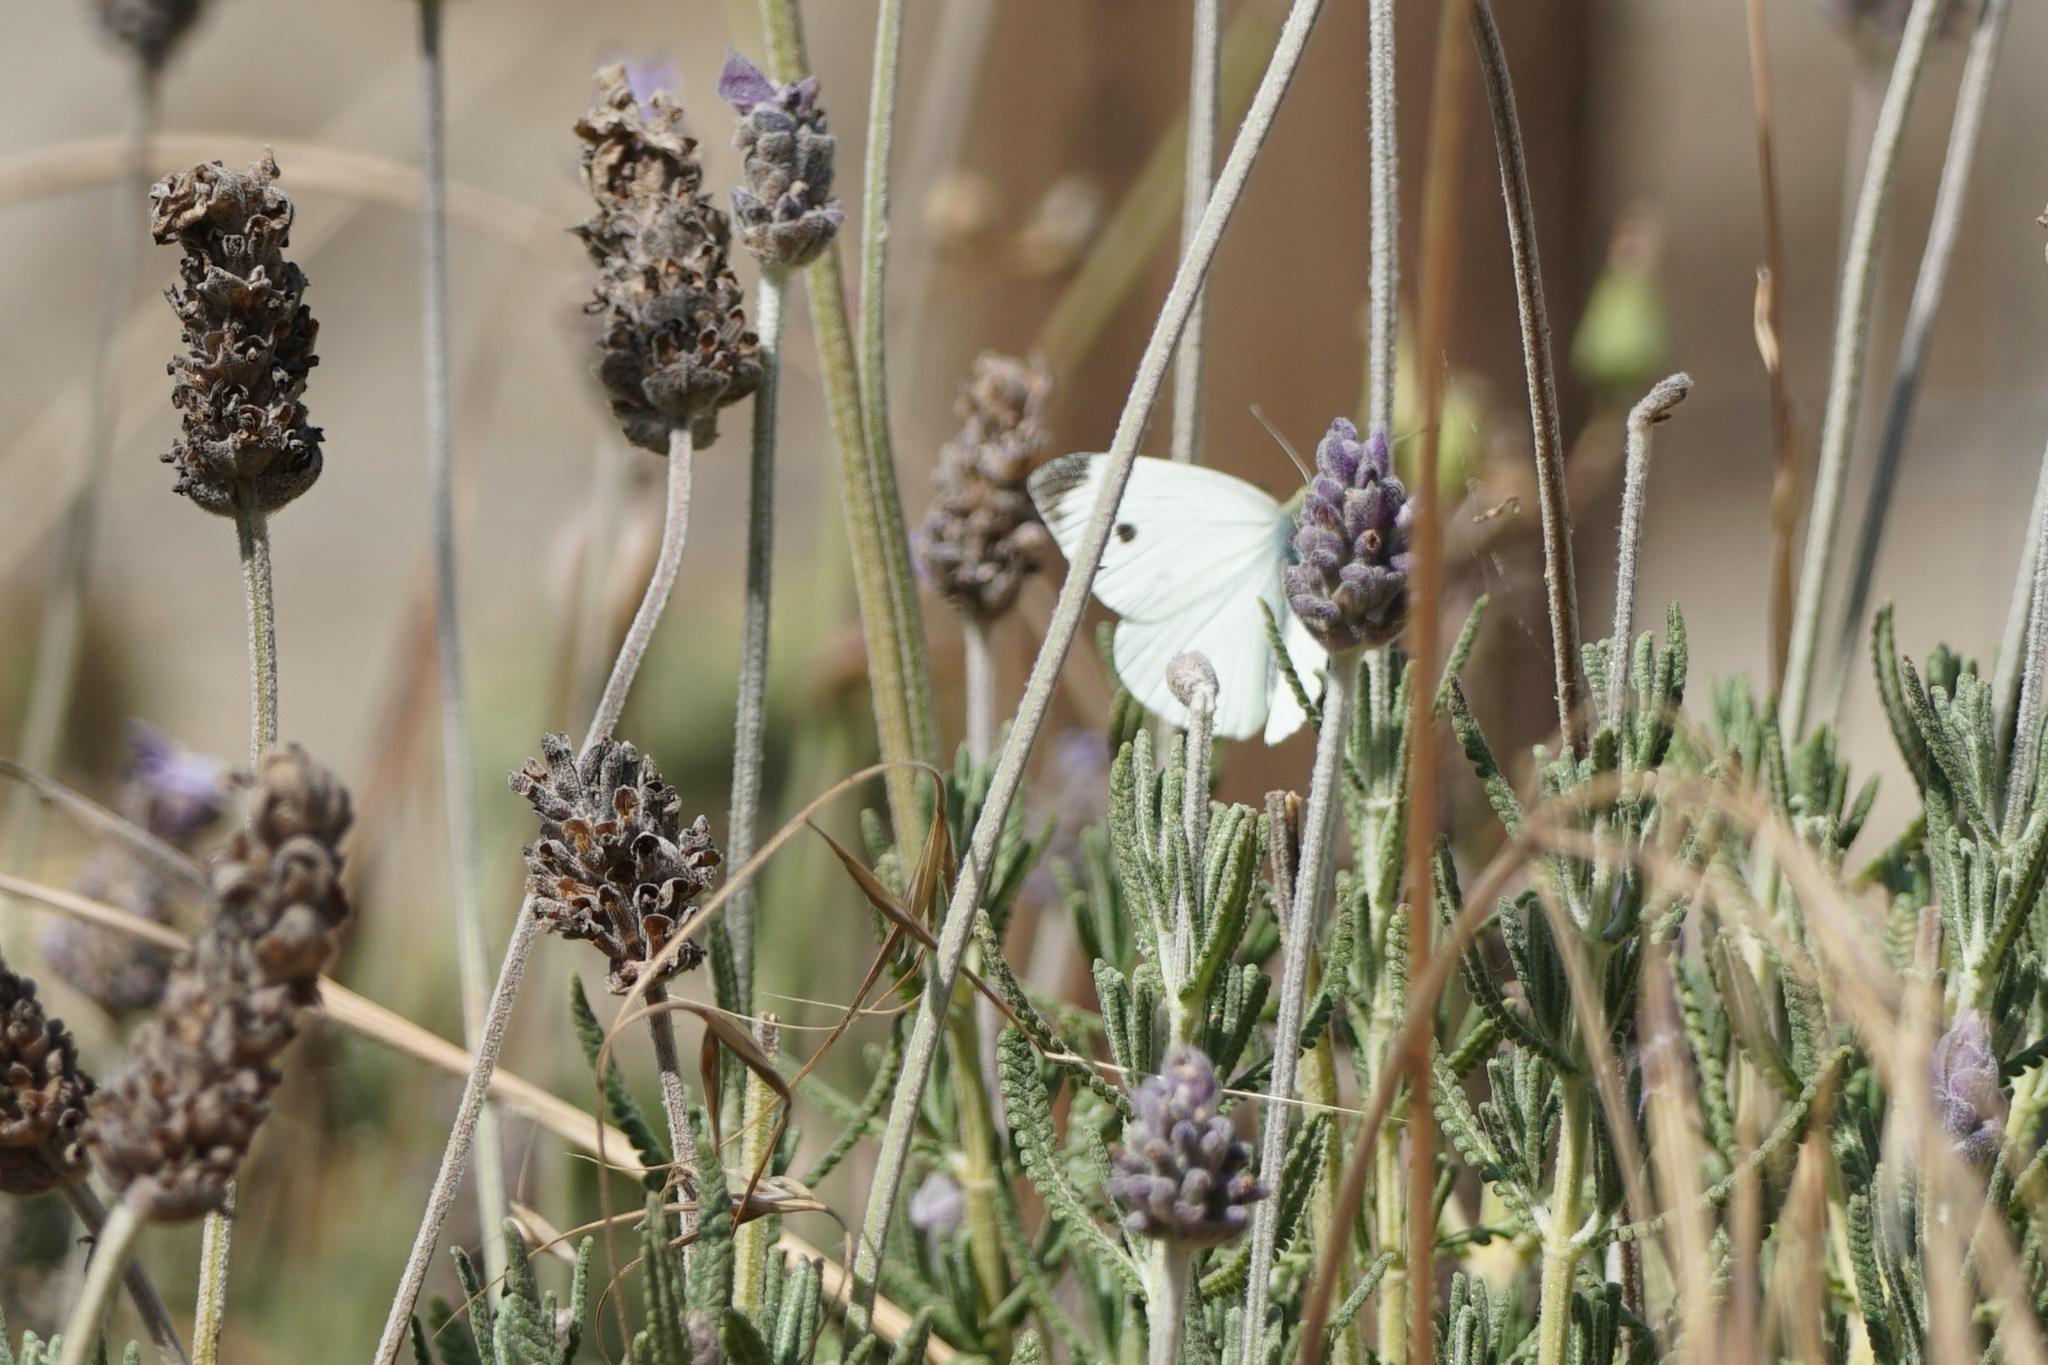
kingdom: Animalia
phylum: Arthropoda
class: Insecta
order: Lepidoptera
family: Pieridae
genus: Pieris
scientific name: Pieris rapae
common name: Small white
